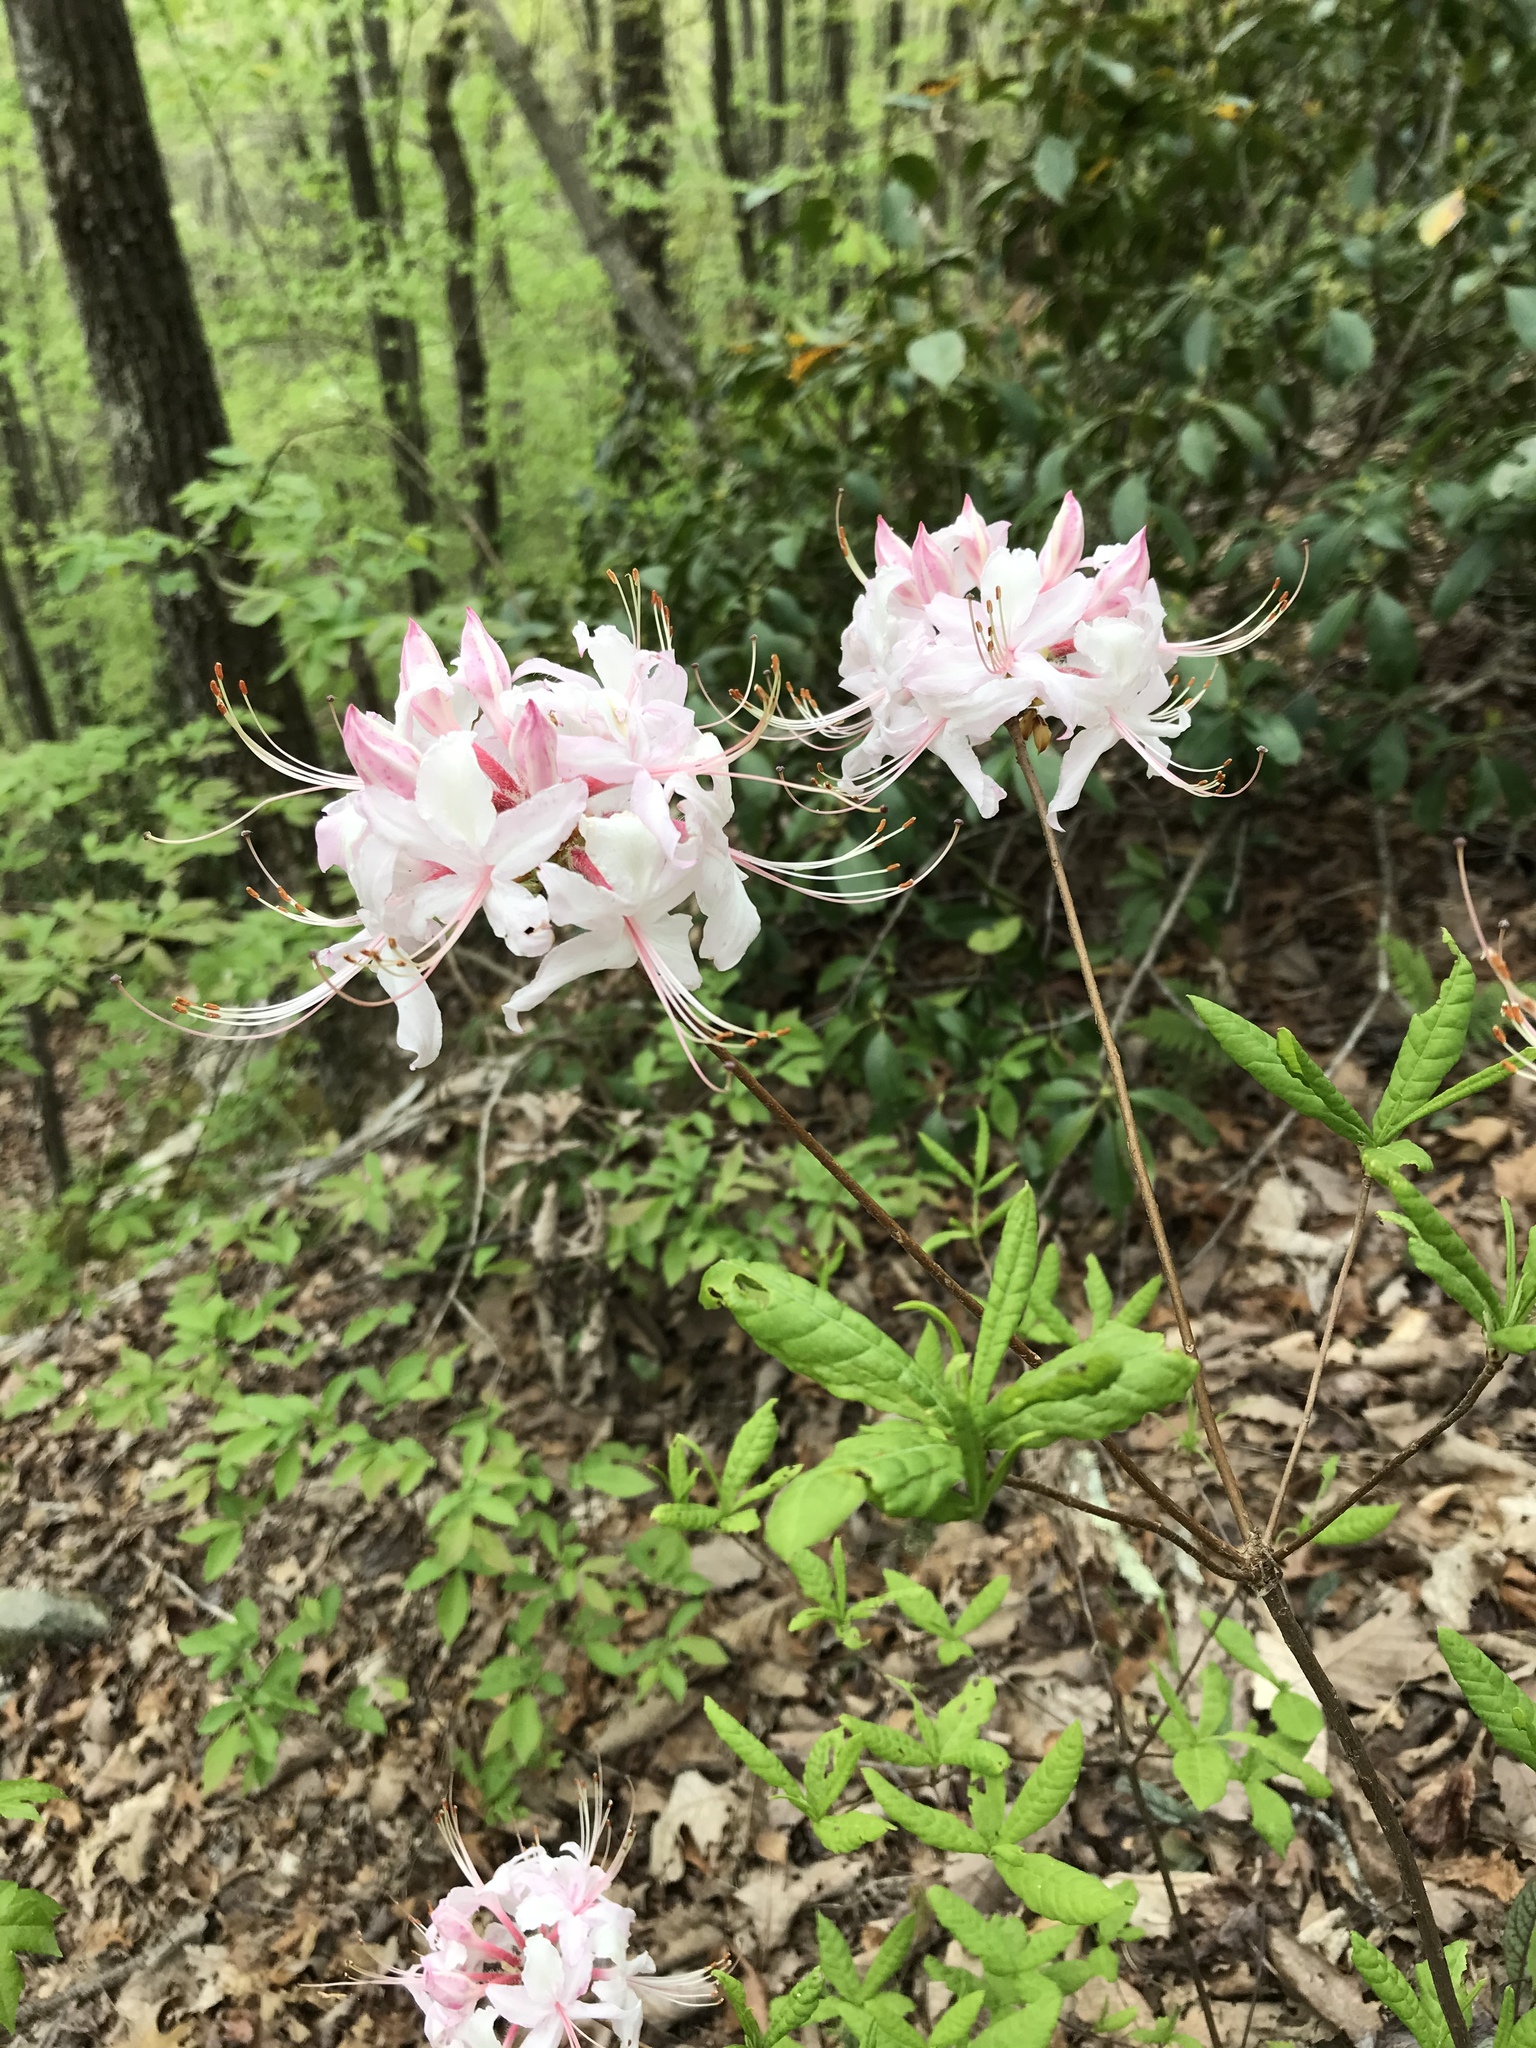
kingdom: Plantae
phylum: Tracheophyta
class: Magnoliopsida
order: Ericales
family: Ericaceae
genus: Rhododendron
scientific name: Rhododendron periclymenoides
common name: Election-pink
